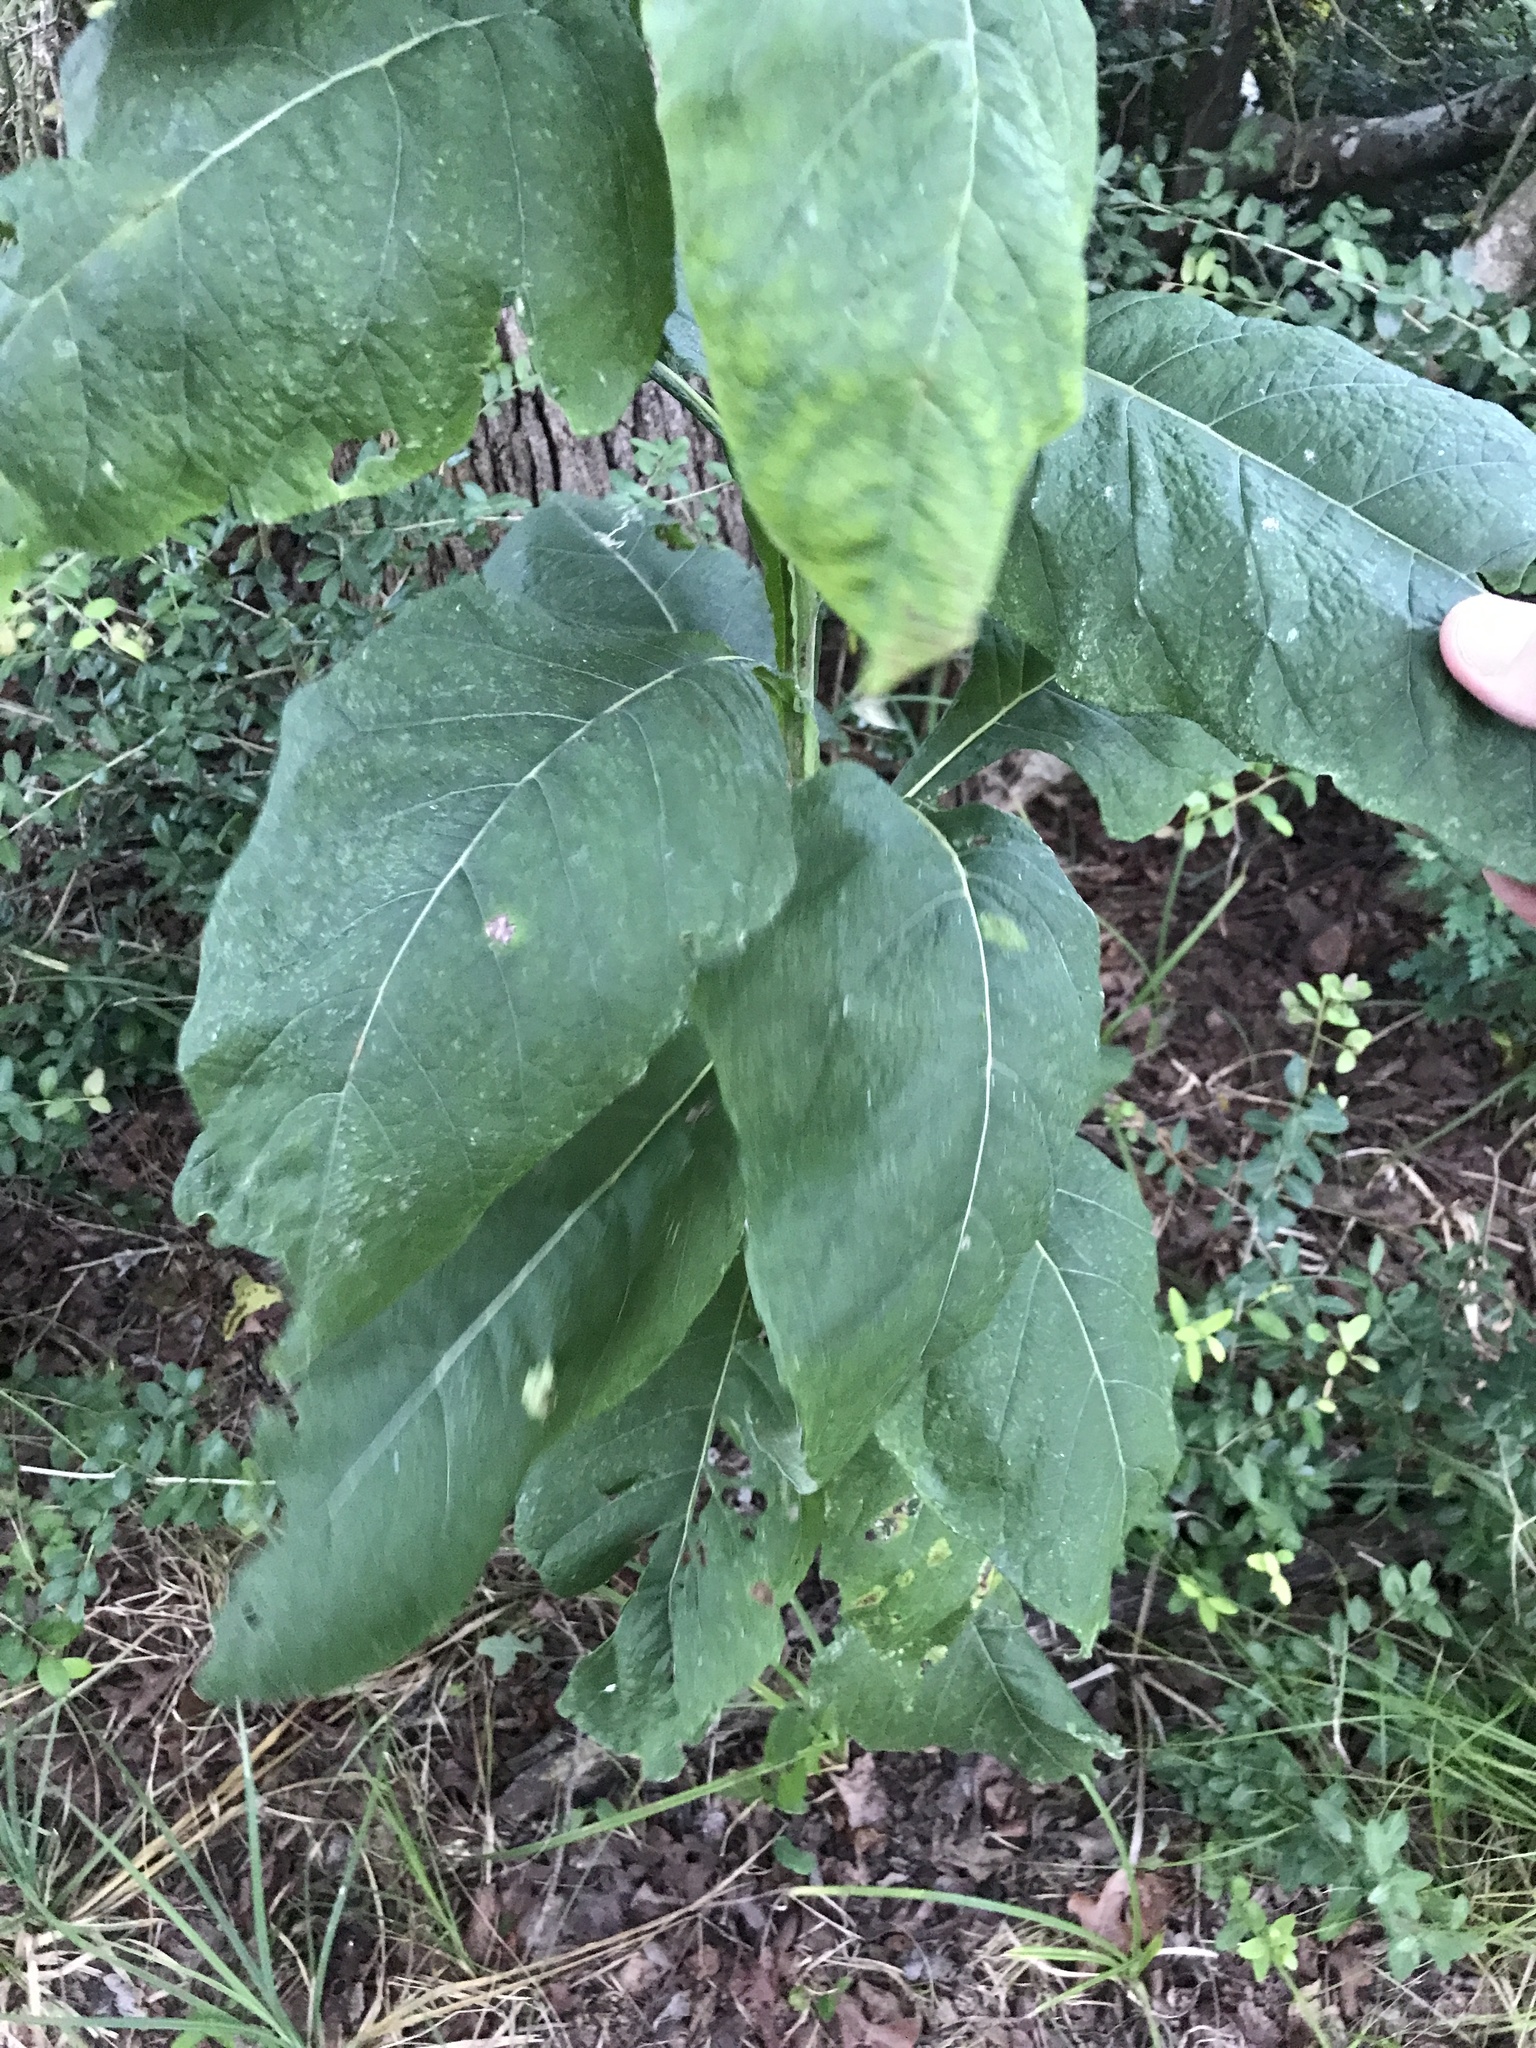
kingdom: Plantae
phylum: Tracheophyta
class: Magnoliopsida
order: Asterales
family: Asteraceae
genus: Verbesina
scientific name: Verbesina virginica
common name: Frostweed
